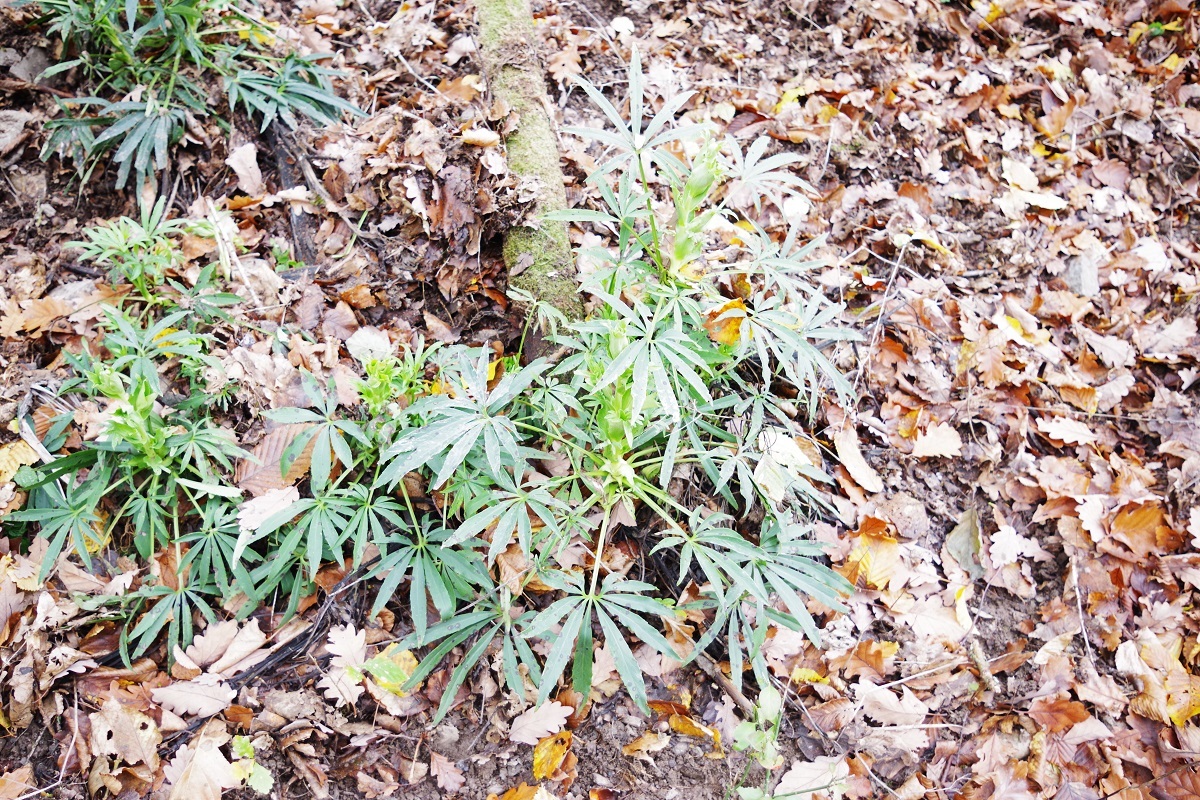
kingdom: Plantae
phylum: Tracheophyta
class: Magnoliopsida
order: Ranunculales
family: Ranunculaceae
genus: Helleborus
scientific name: Helleborus foetidus
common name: Stinking hellebore
